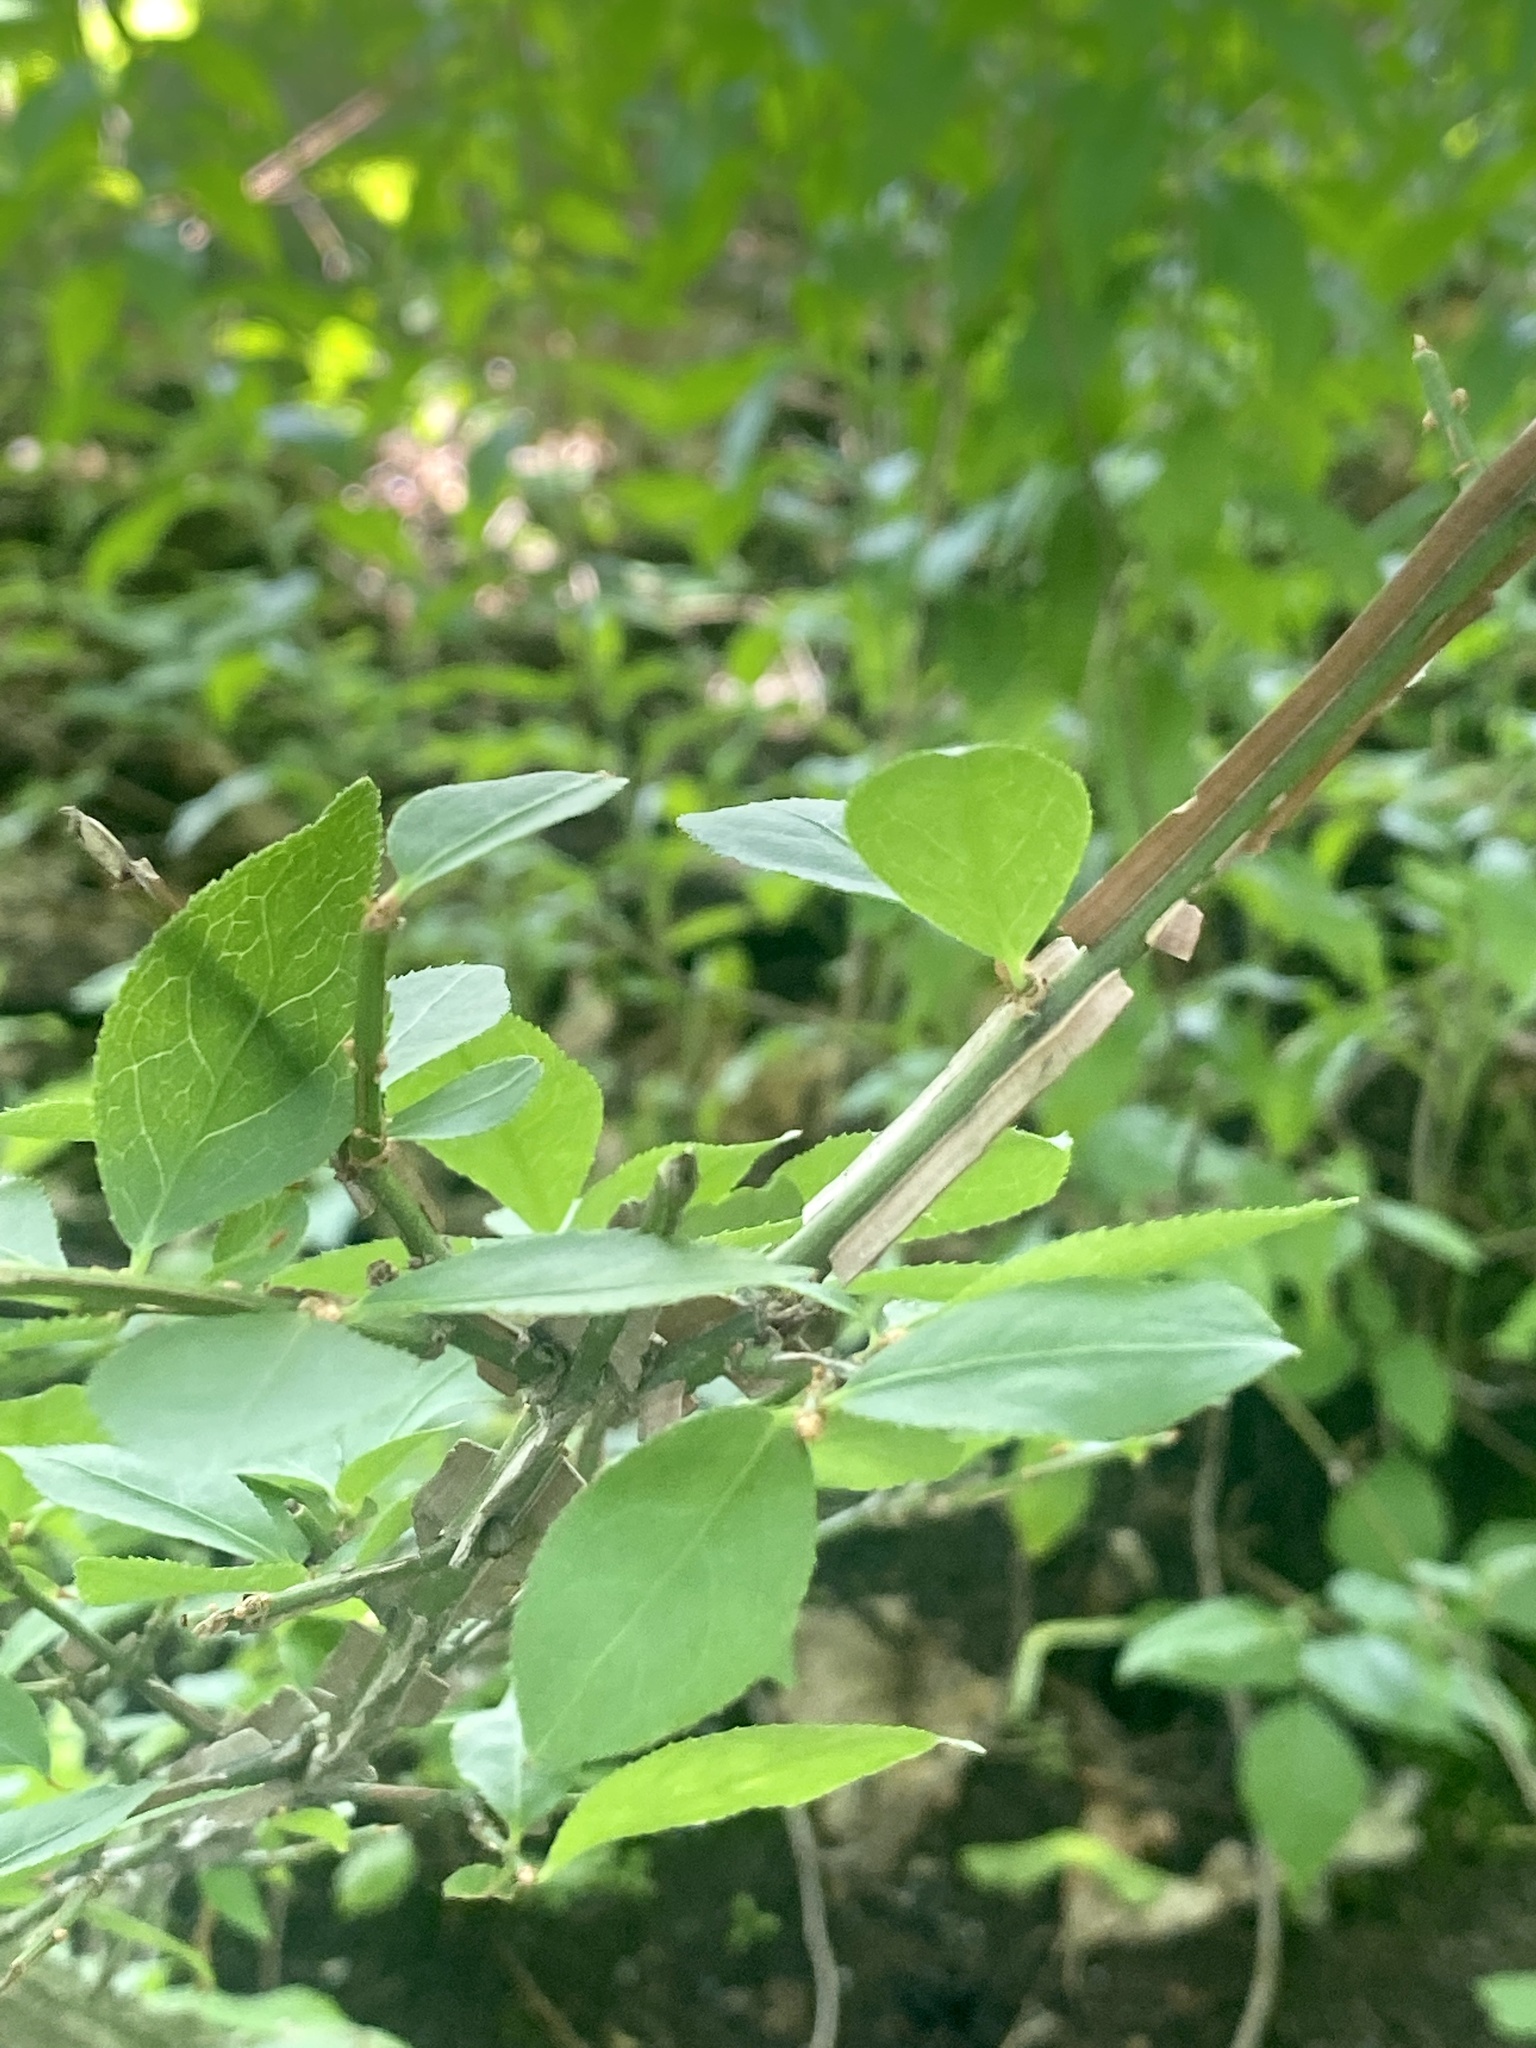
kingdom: Plantae
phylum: Tracheophyta
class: Magnoliopsida
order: Celastrales
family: Celastraceae
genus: Euonymus
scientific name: Euonymus alatus
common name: Winged euonymus
